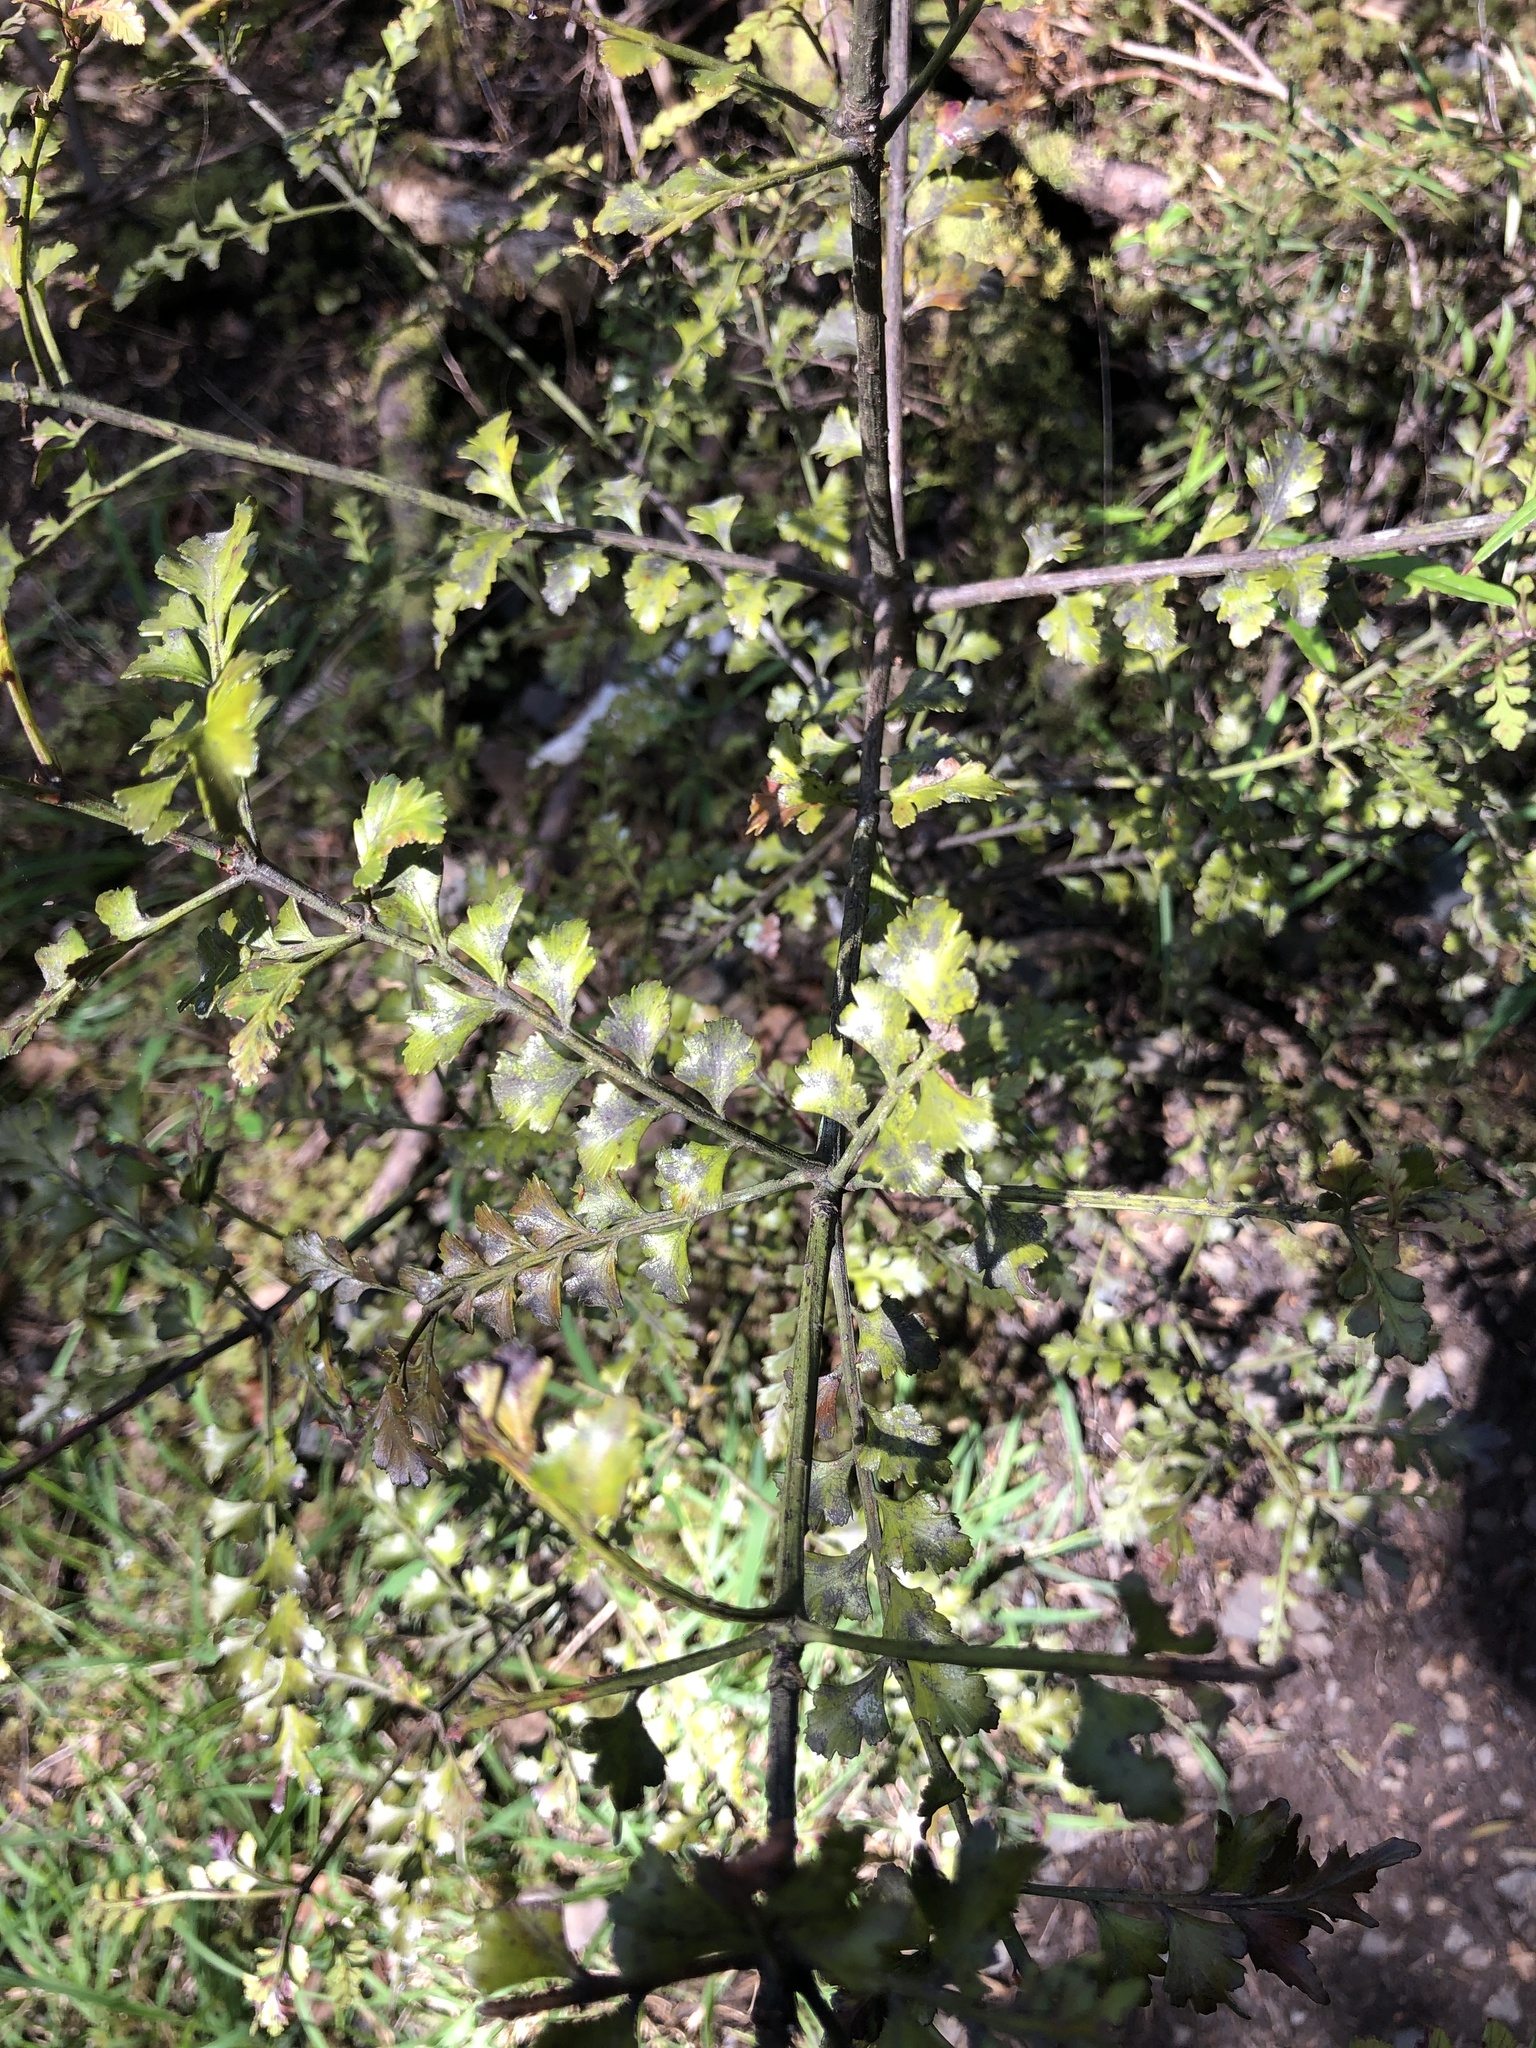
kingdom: Plantae
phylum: Tracheophyta
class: Pinopsida
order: Pinales
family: Phyllocladaceae
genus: Phyllocladus
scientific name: Phyllocladus trichomanoides
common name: Celery pine
